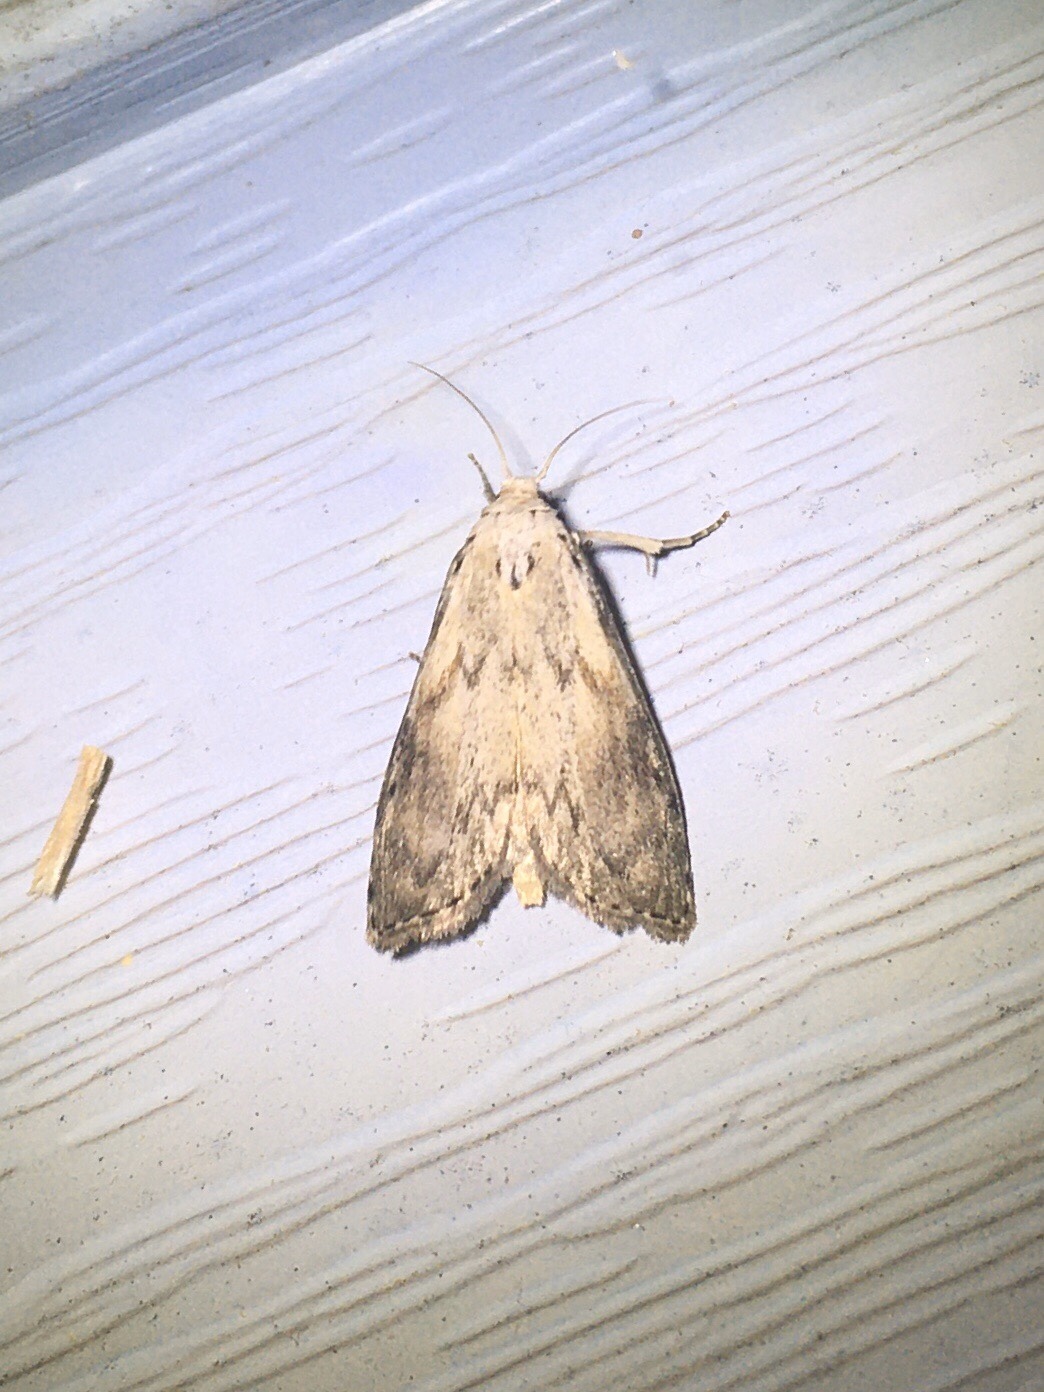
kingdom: Animalia
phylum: Arthropoda
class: Insecta
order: Lepidoptera
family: Pyralidae
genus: Aphomia
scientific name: Aphomia sociella
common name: Bee moth
